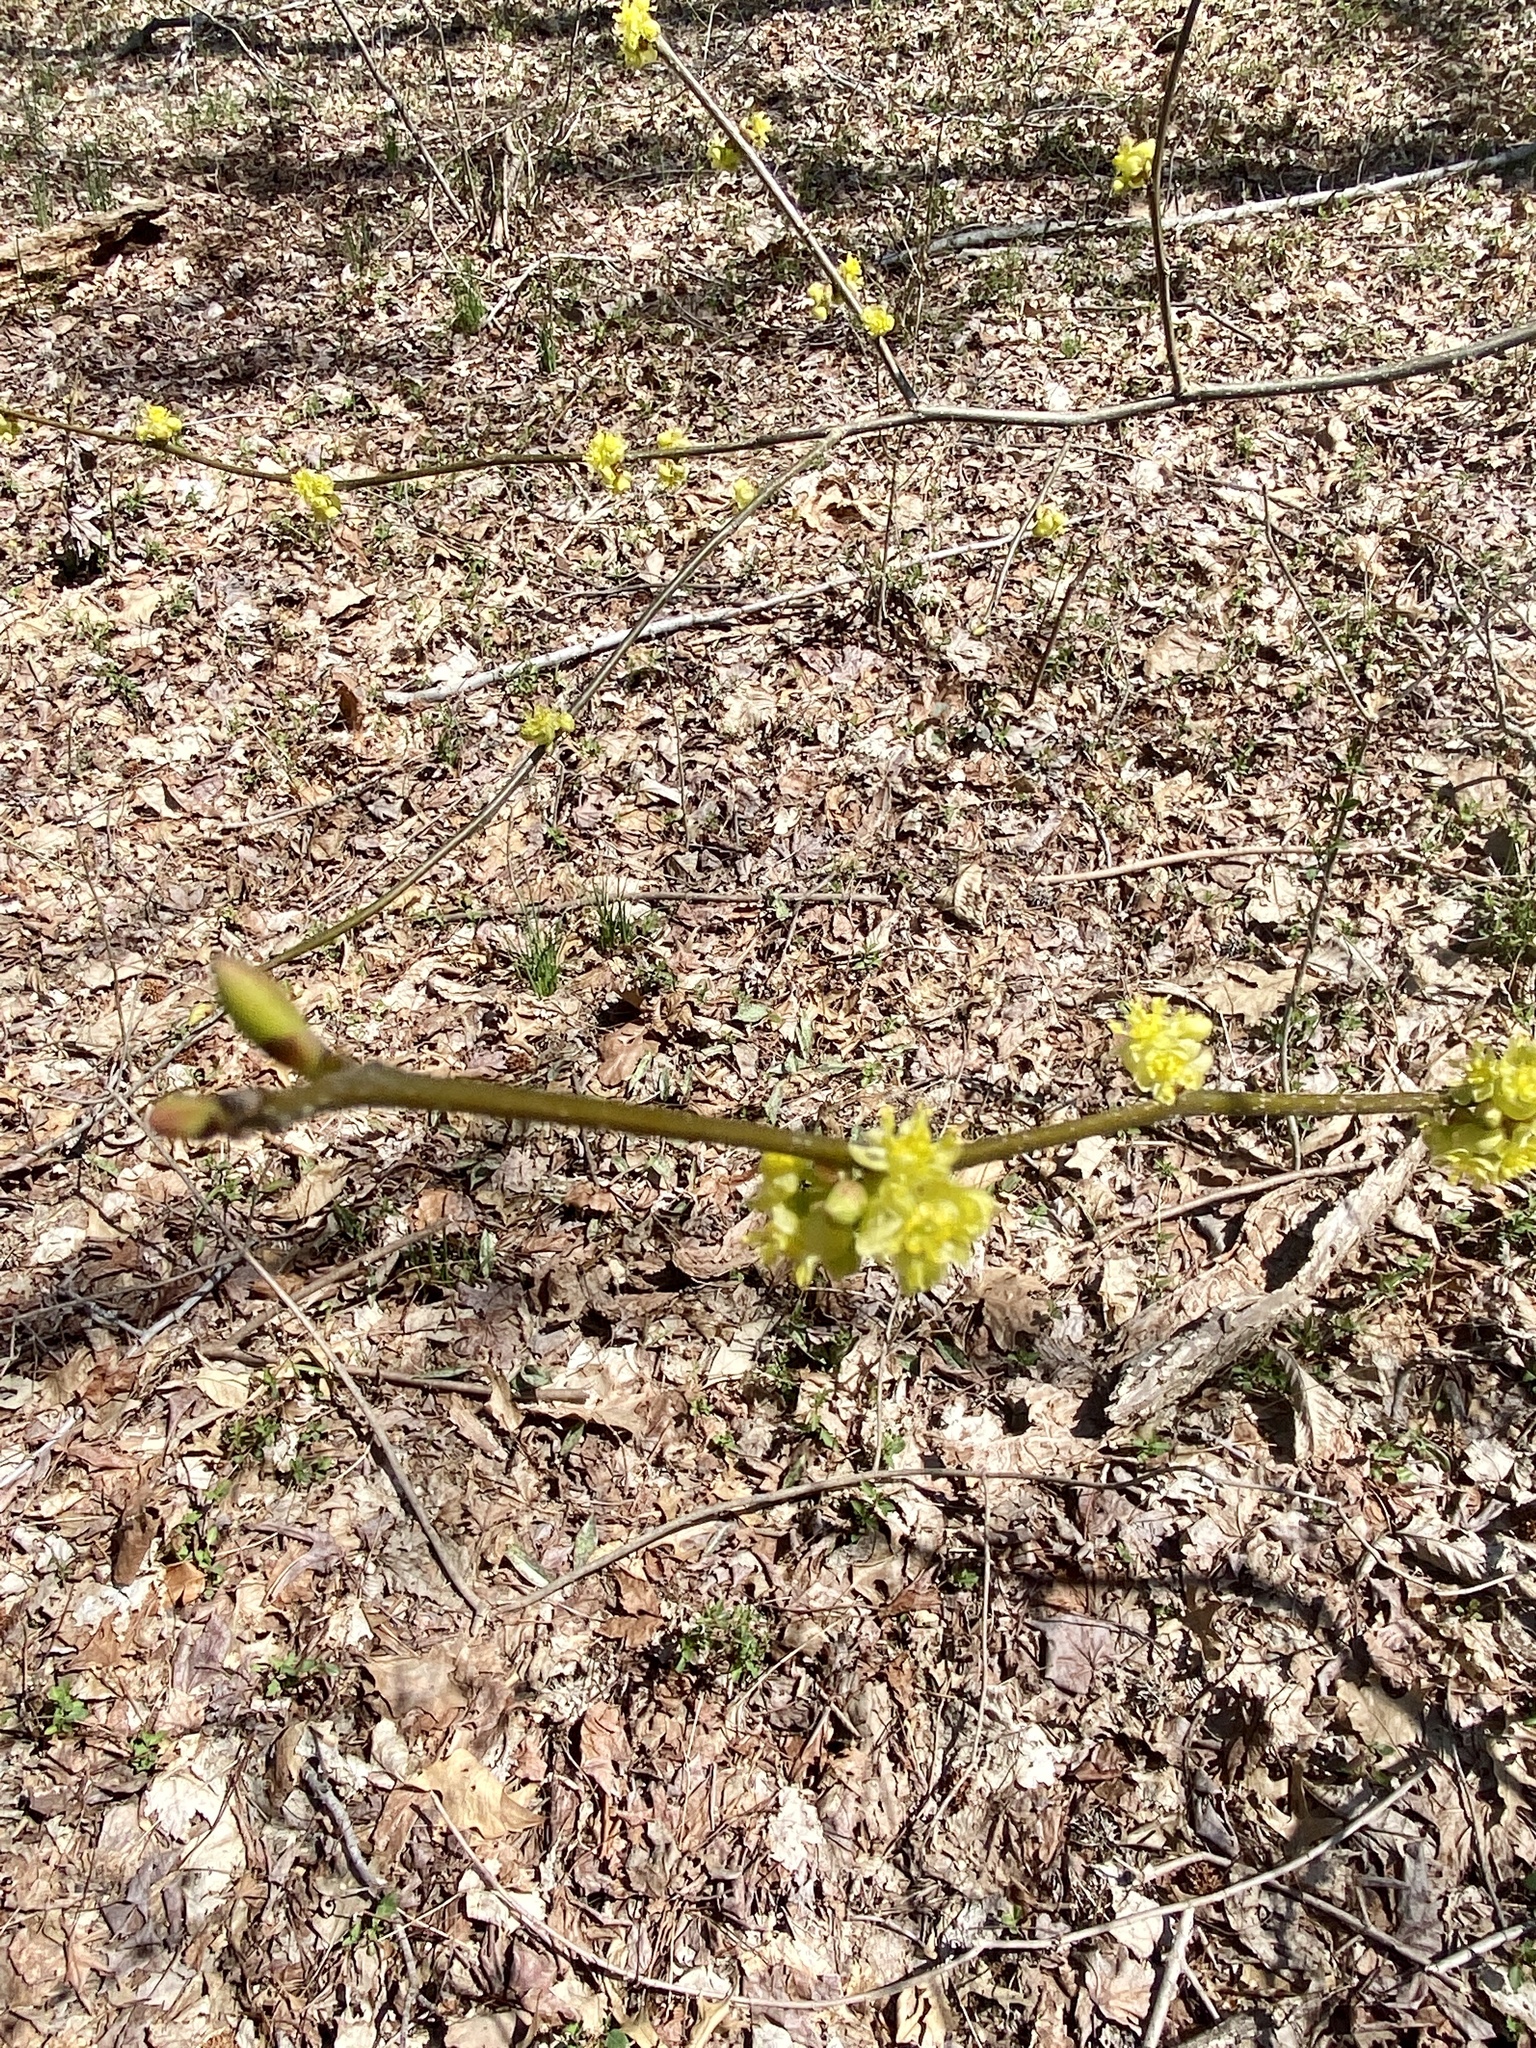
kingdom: Plantae
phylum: Tracheophyta
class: Magnoliopsida
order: Laurales
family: Lauraceae
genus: Lindera
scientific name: Lindera benzoin
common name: Spicebush
